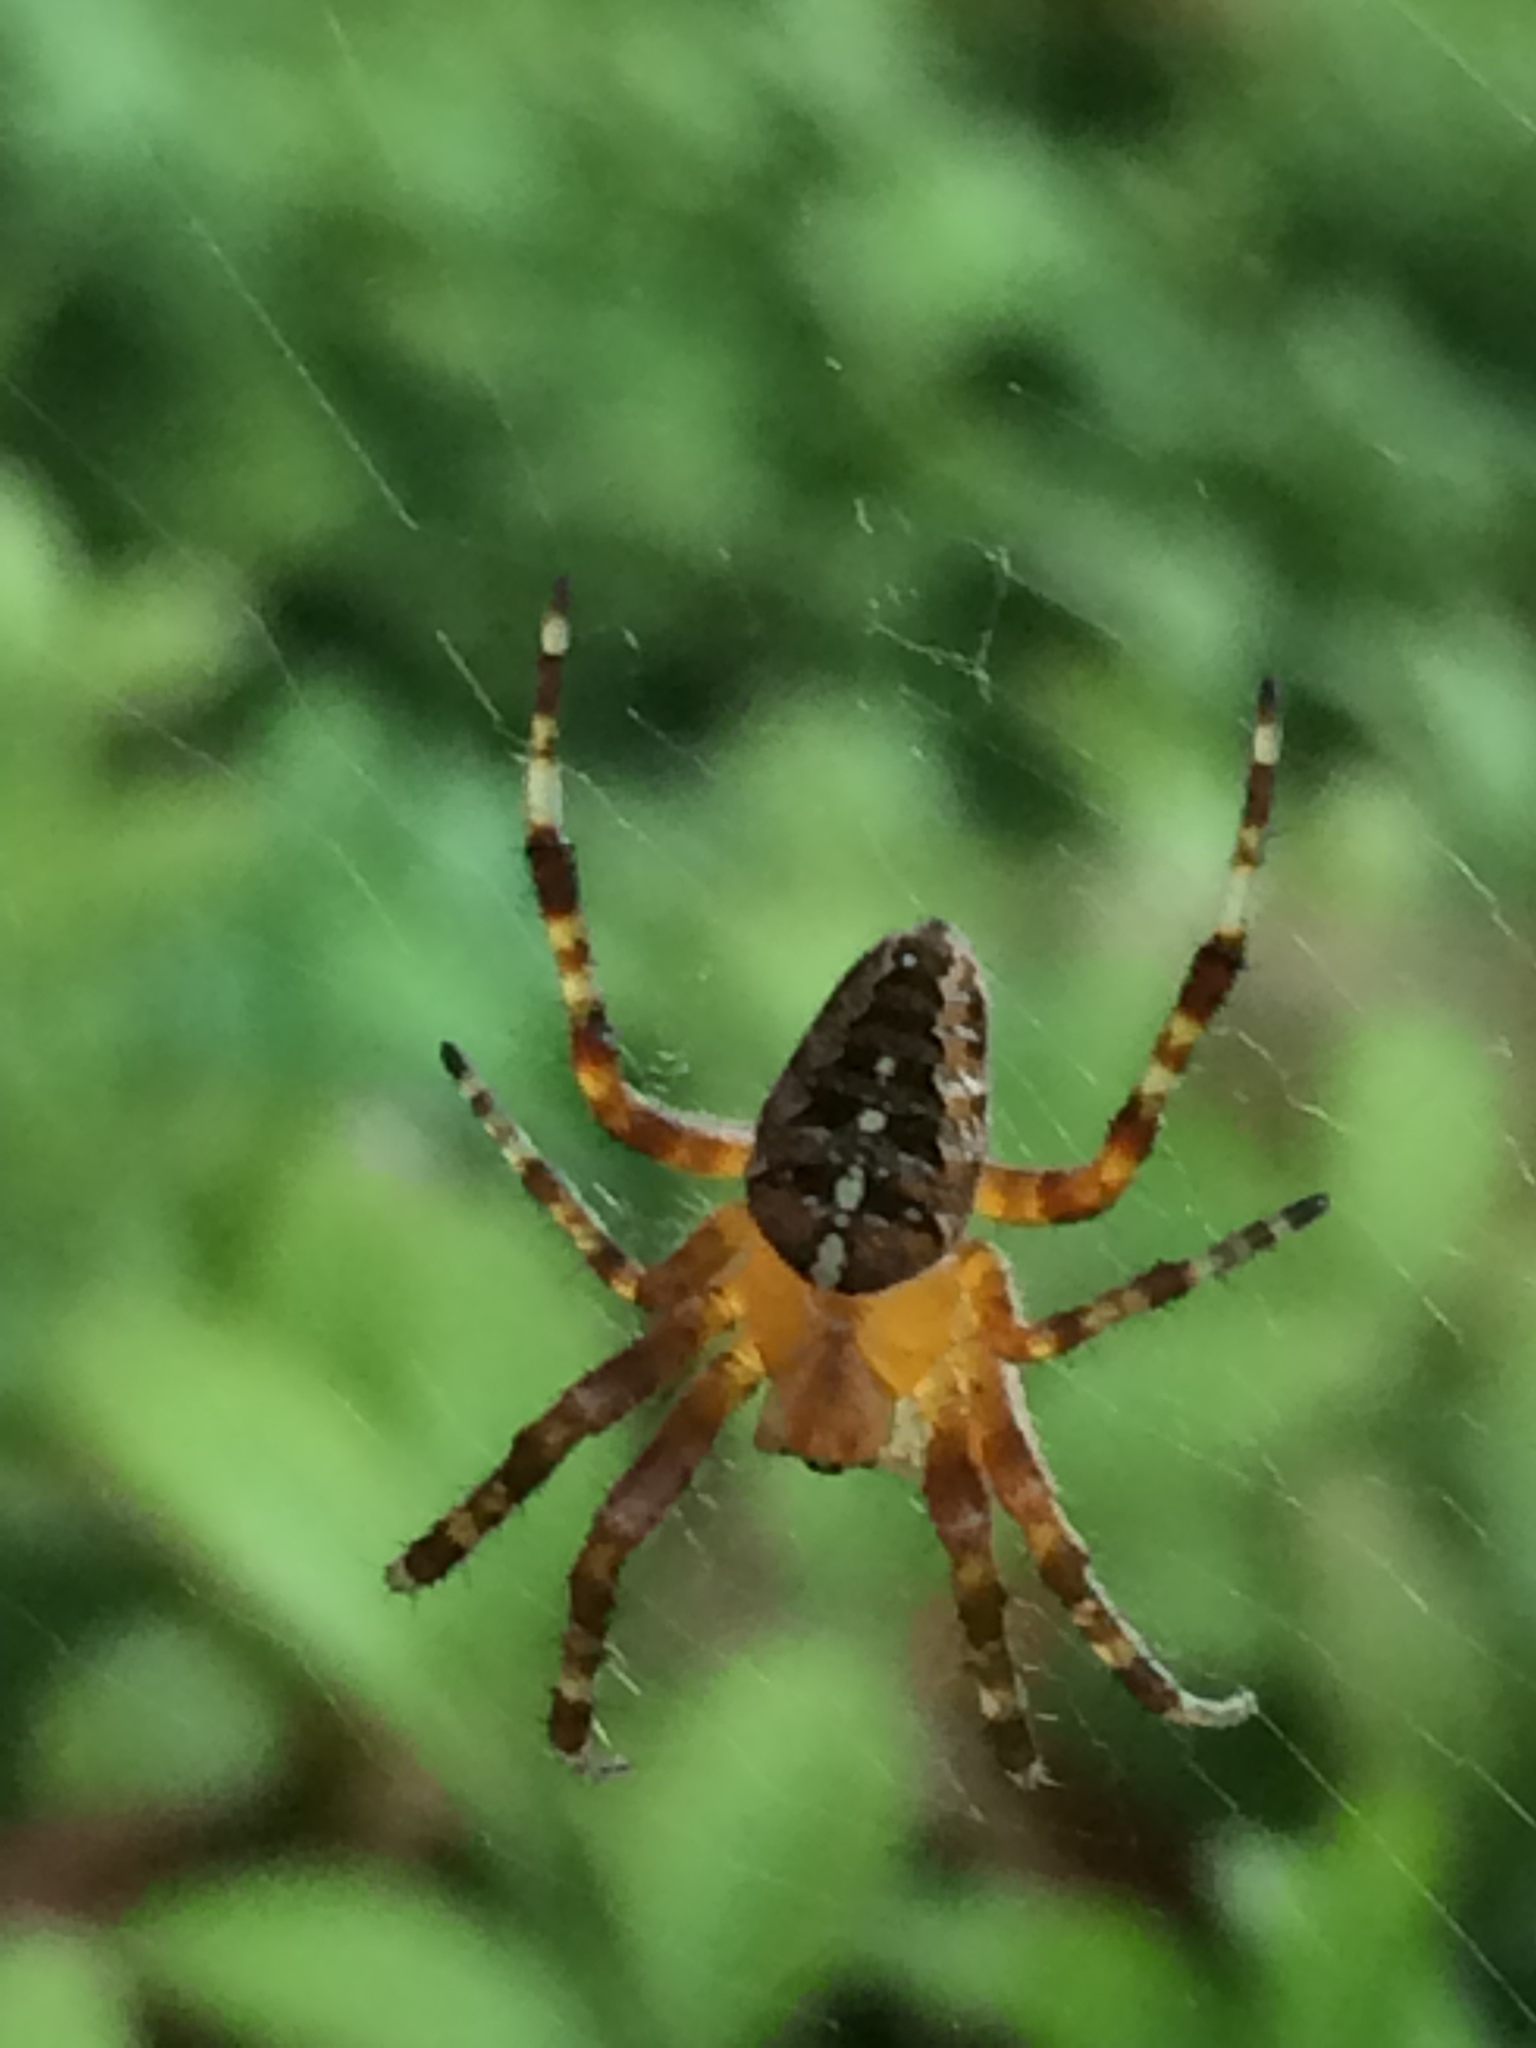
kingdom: Animalia
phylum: Arthropoda
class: Arachnida
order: Araneae
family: Araneidae
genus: Araneus
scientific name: Araneus diadematus
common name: Cross orbweaver
